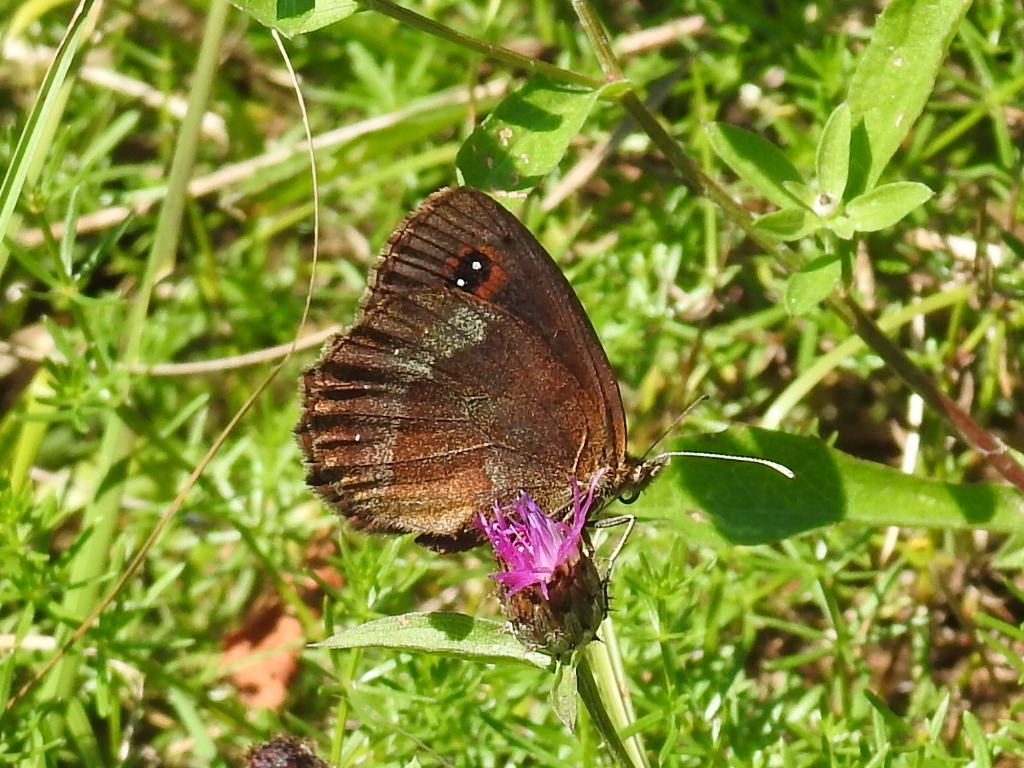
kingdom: Animalia
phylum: Arthropoda
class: Insecta
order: Lepidoptera
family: Nymphalidae
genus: Erebia
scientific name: Erebia aethiops
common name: Scotch argus
